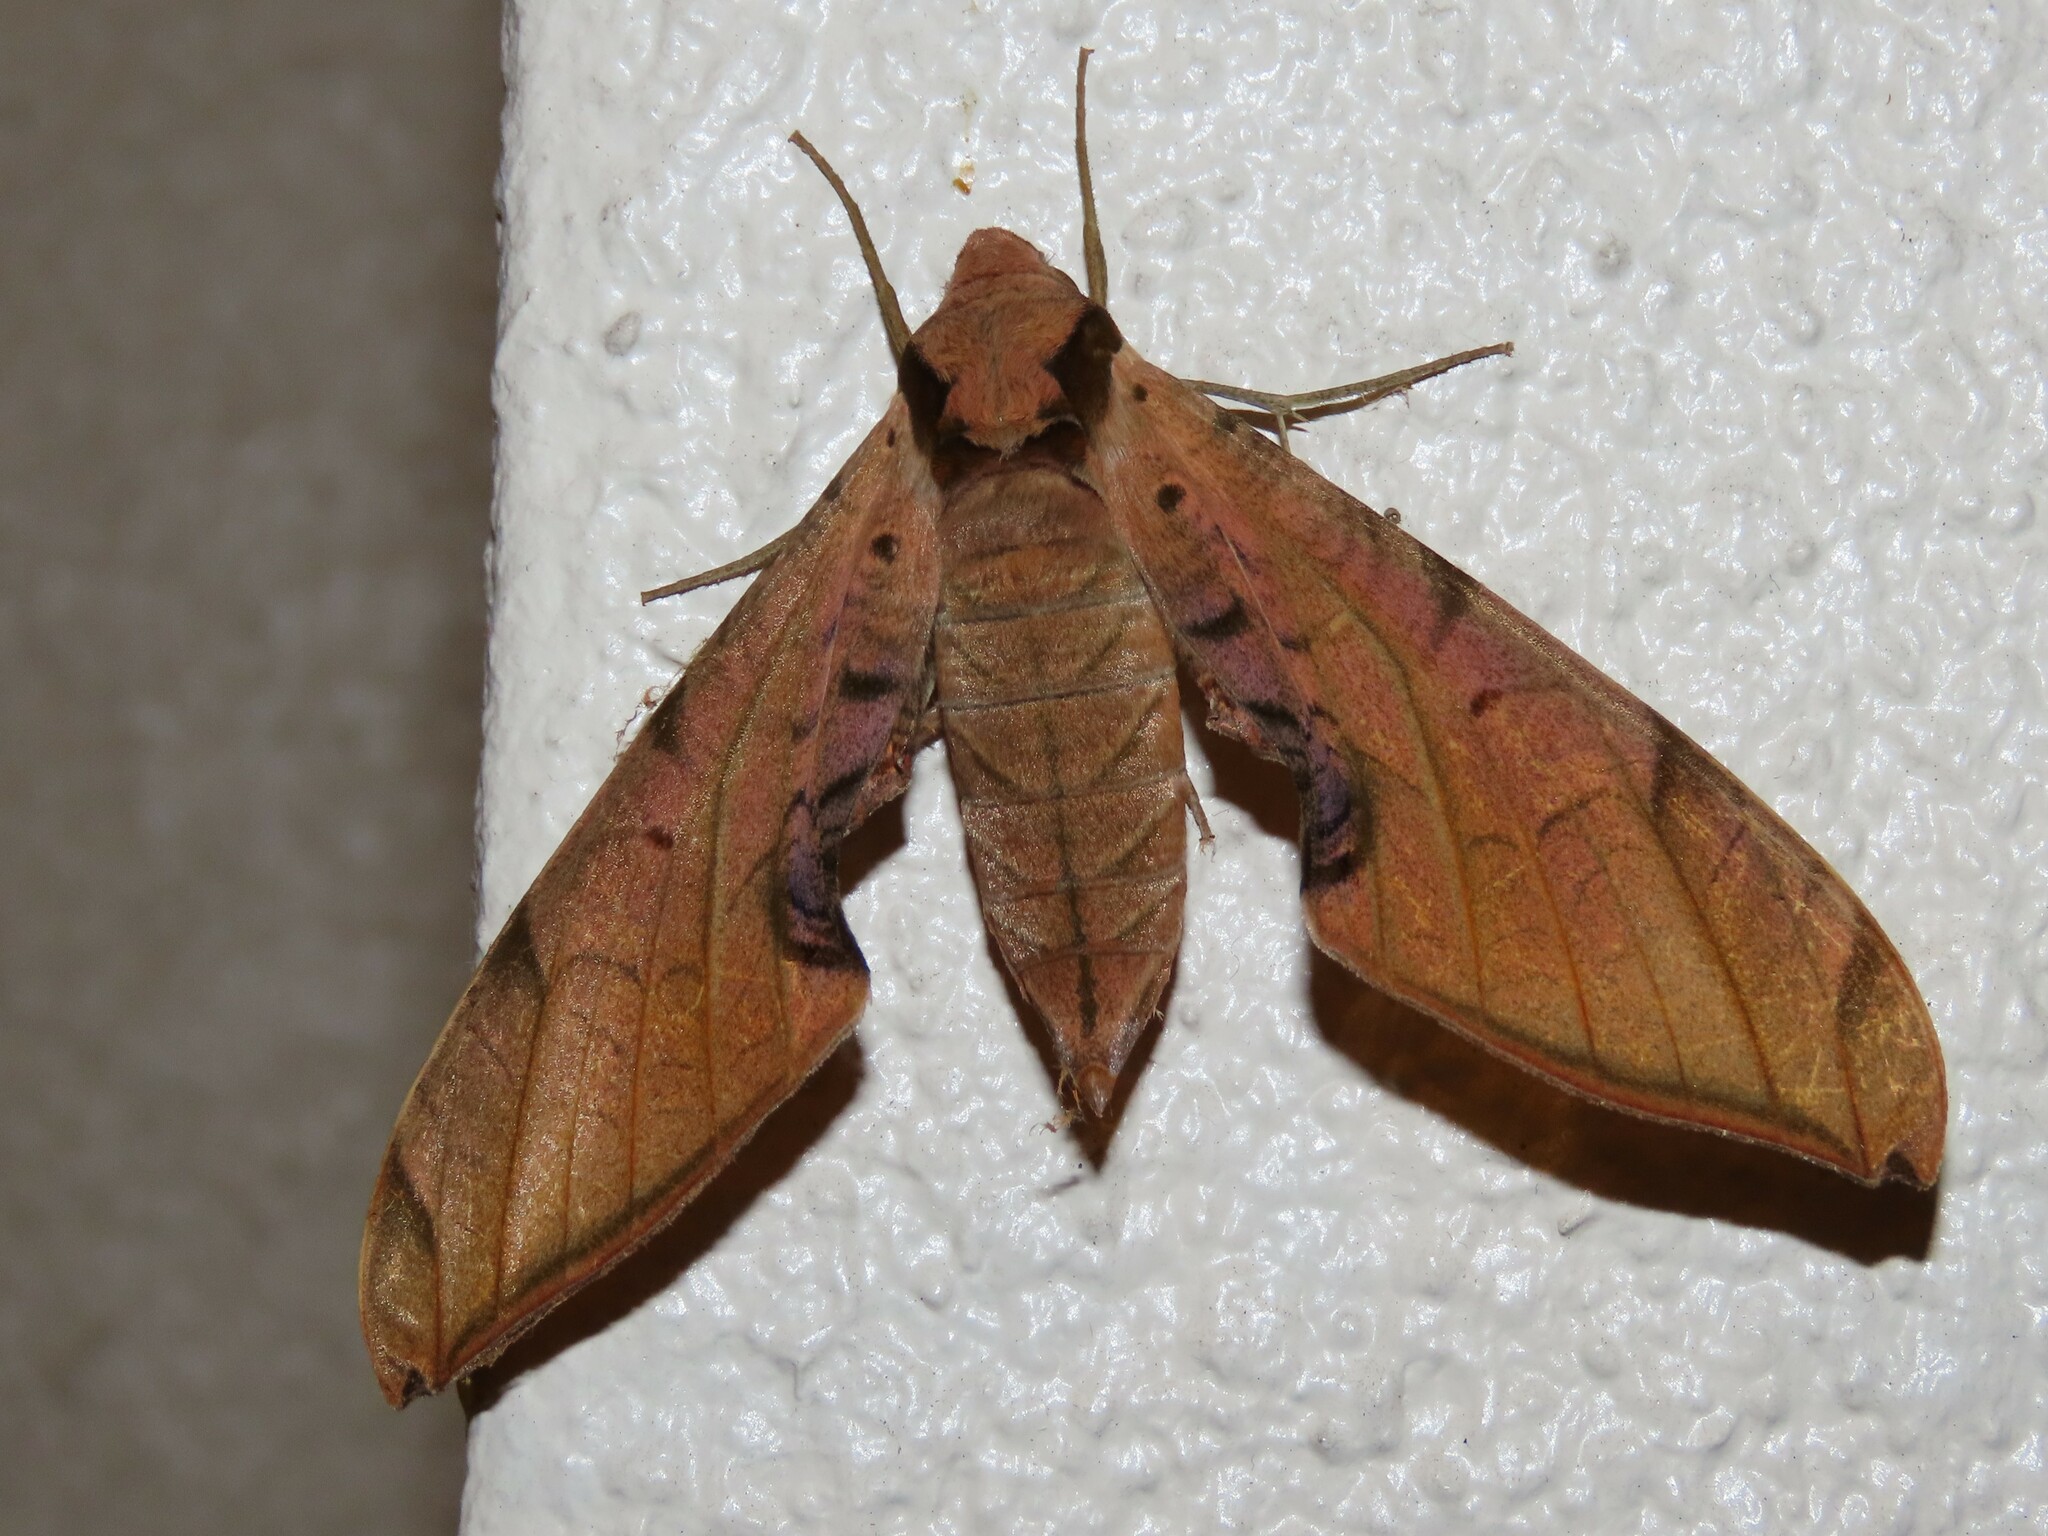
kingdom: Animalia
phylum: Arthropoda
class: Insecta
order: Lepidoptera
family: Sphingidae
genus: Protambulyx
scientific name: Protambulyx
